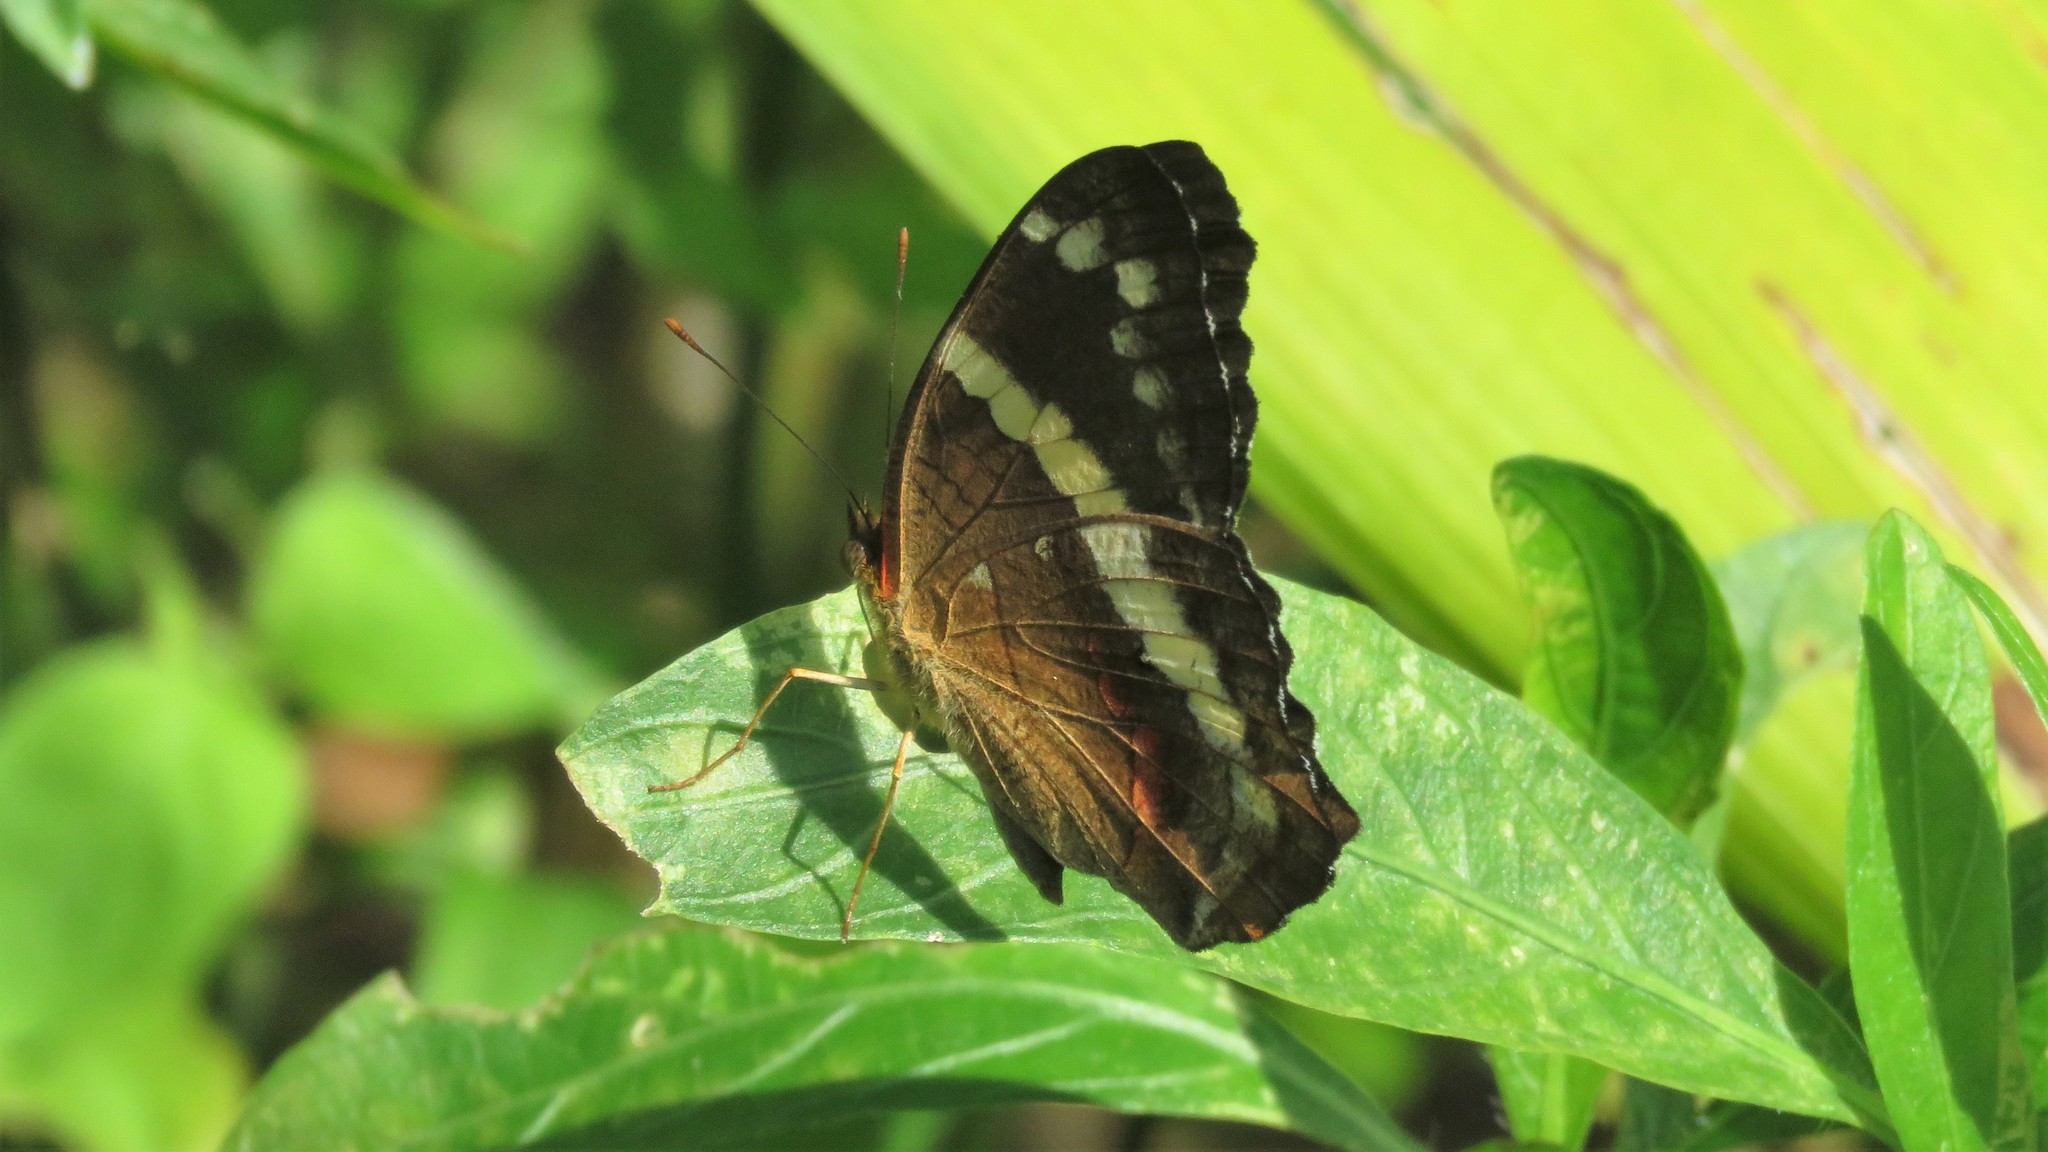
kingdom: Animalia
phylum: Arthropoda
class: Insecta
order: Lepidoptera
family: Nymphalidae
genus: Anartia
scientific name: Anartia fatima
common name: Banded peacock
